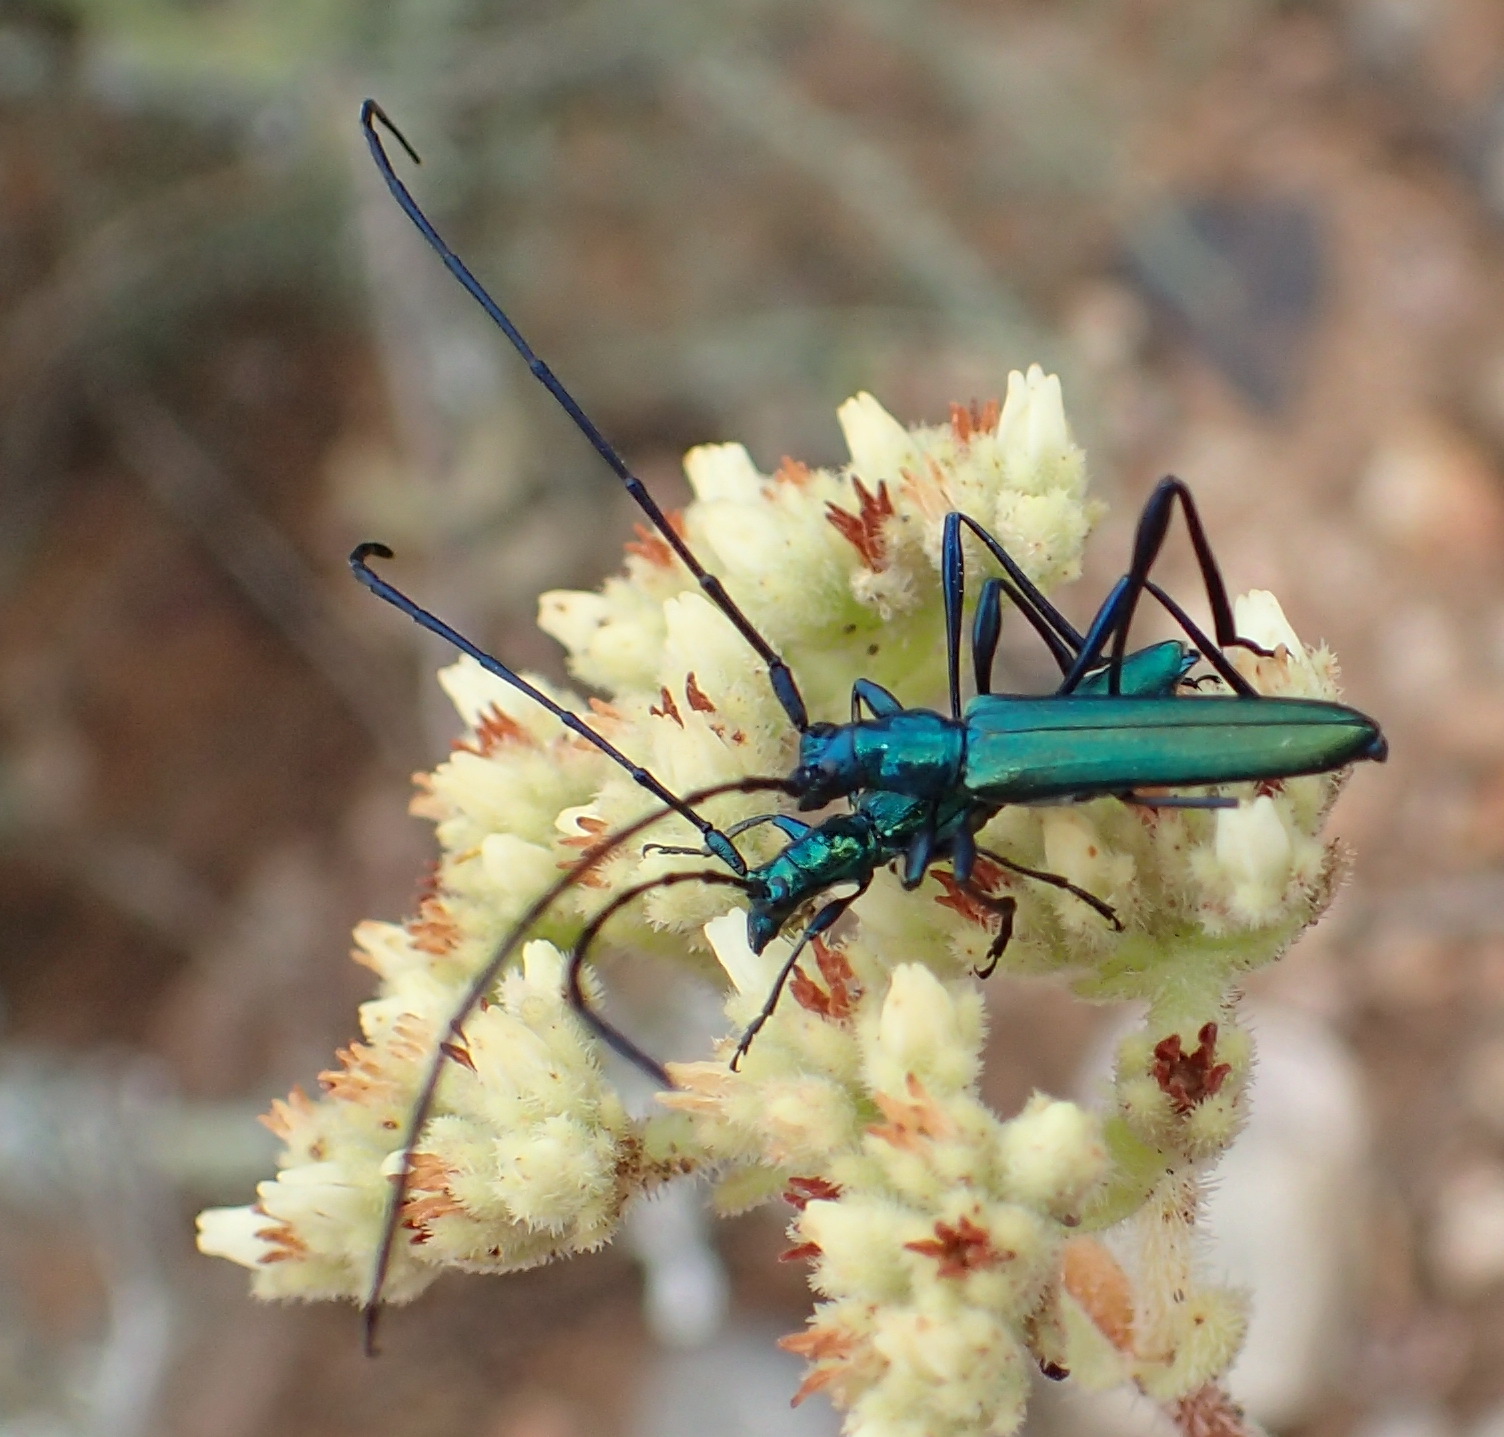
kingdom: Animalia
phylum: Arthropoda
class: Insecta
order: Coleoptera
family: Cerambycidae
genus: Promeces
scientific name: Promeces longipes
